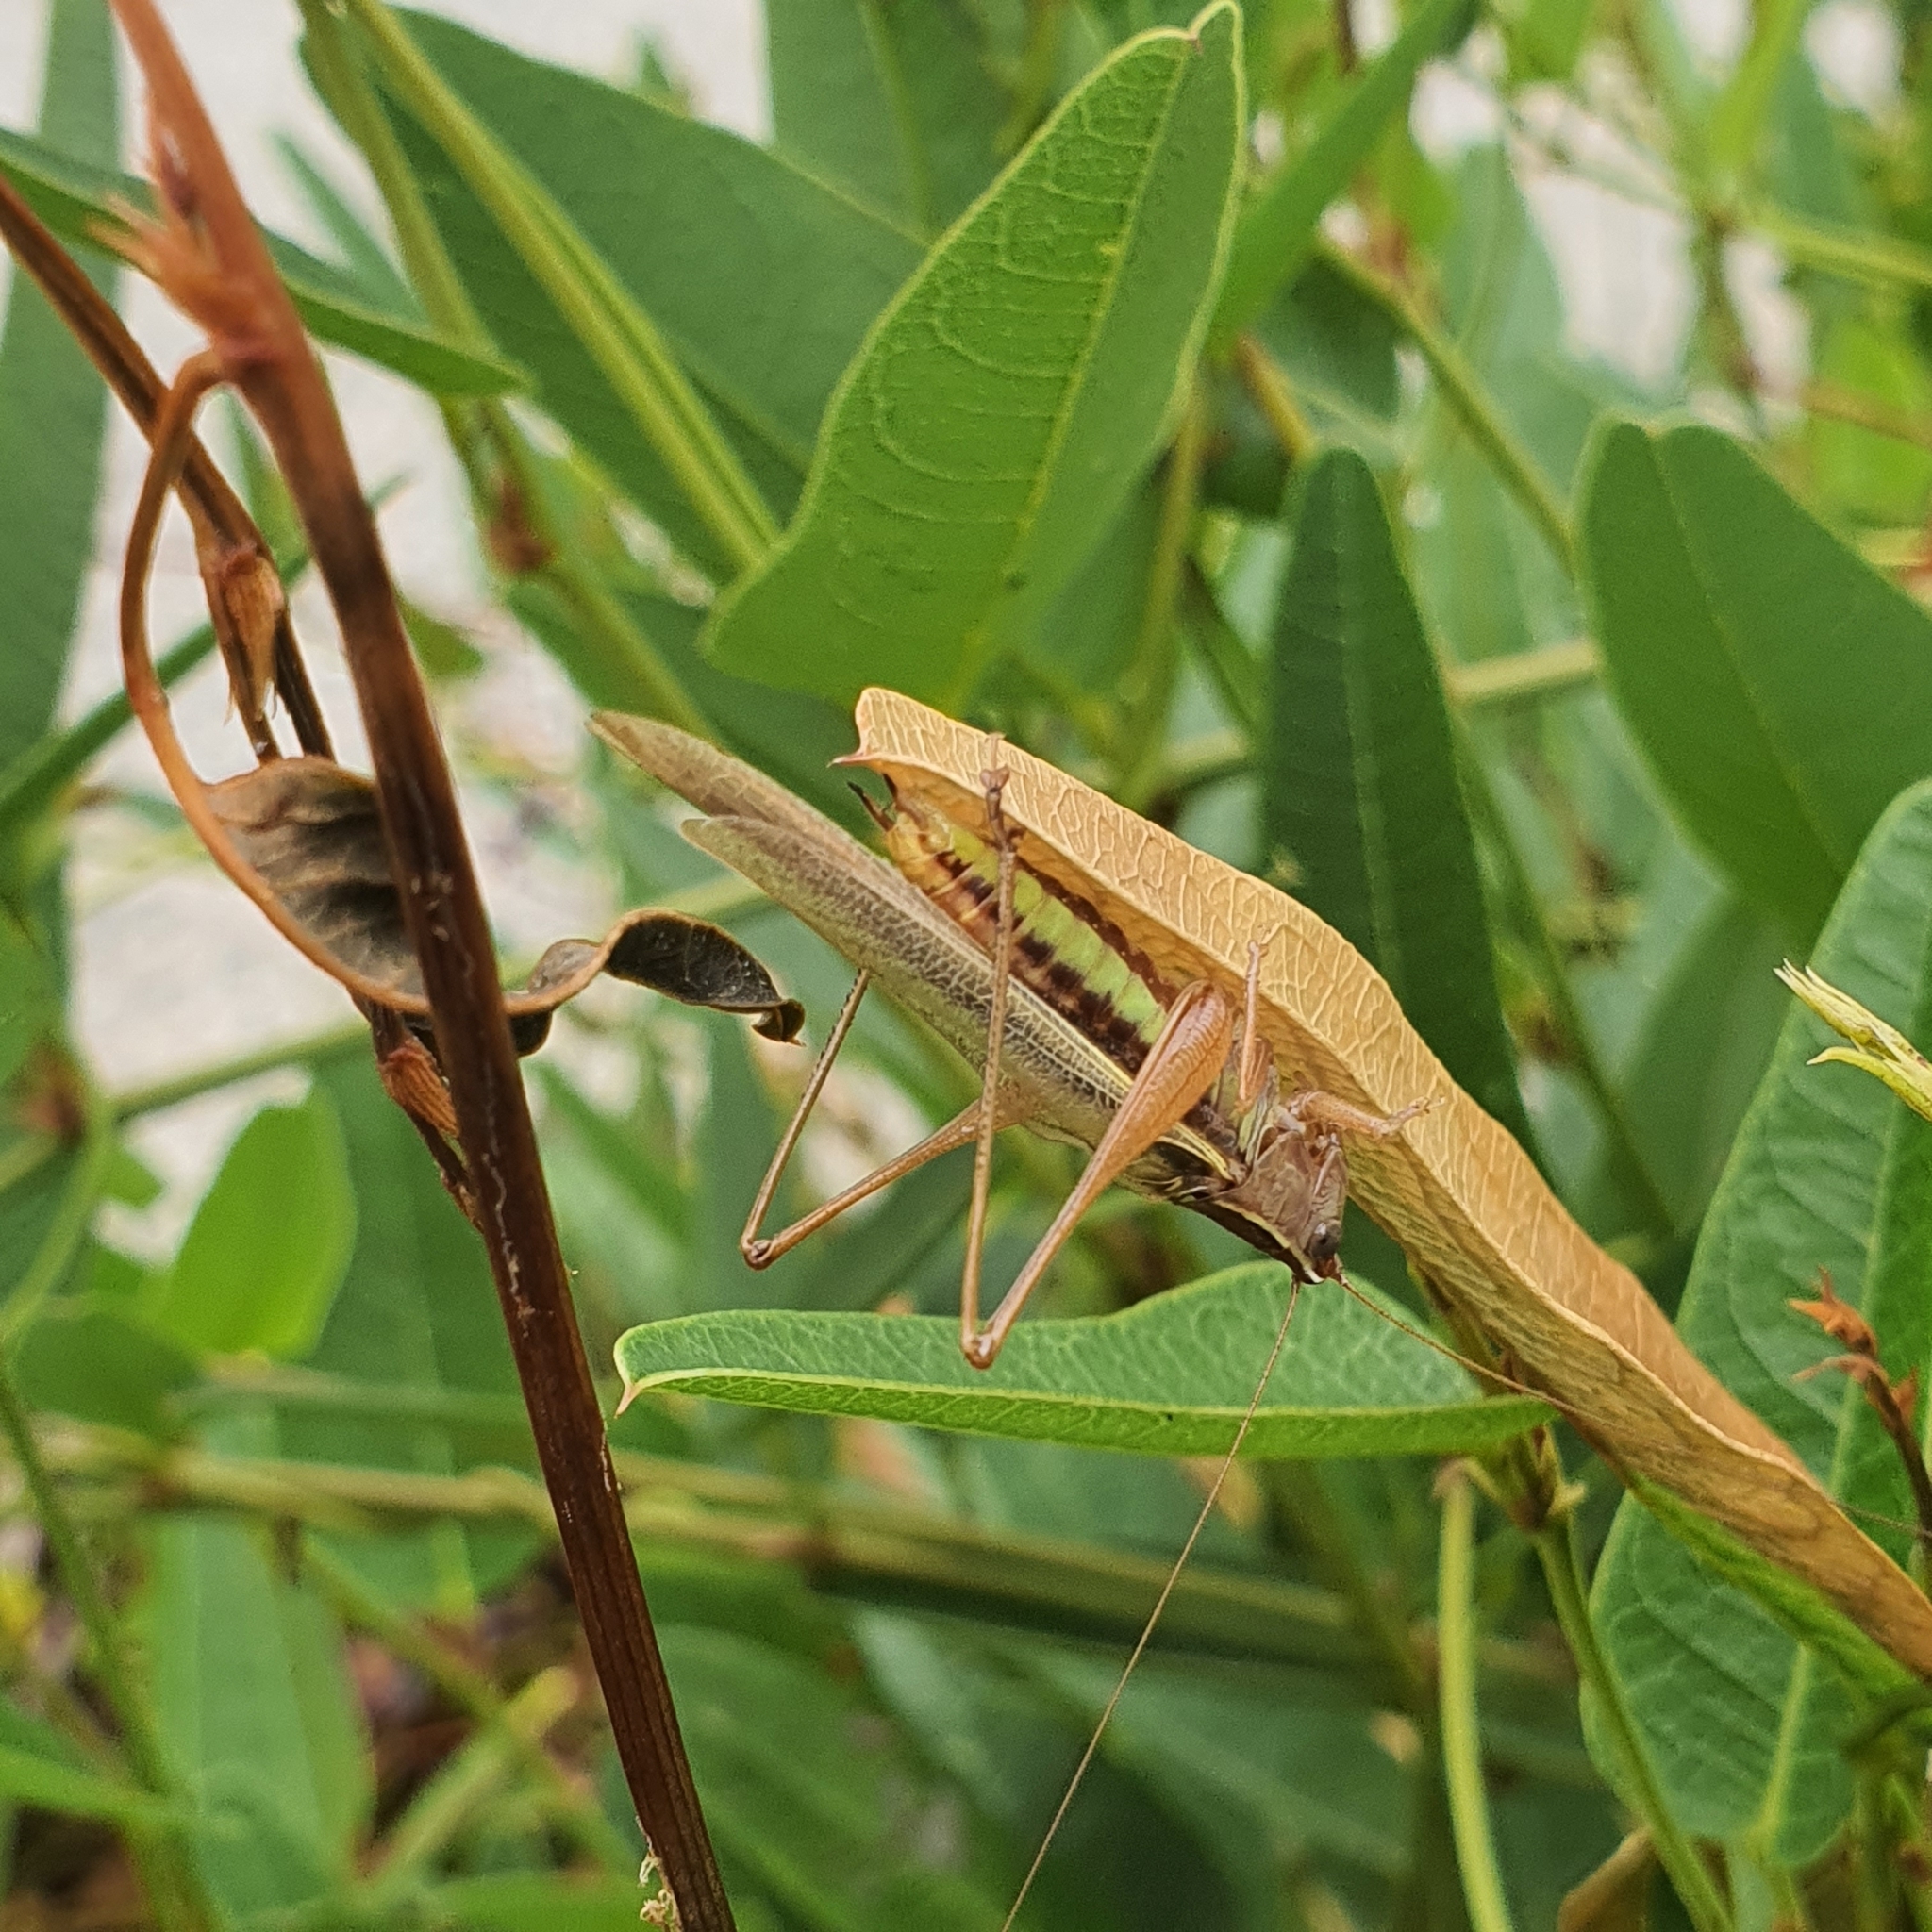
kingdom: Animalia
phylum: Arthropoda
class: Insecta
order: Orthoptera
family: Tettigoniidae
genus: Conocephalus
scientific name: Conocephalus albescens
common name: Whitish meadow katydid
